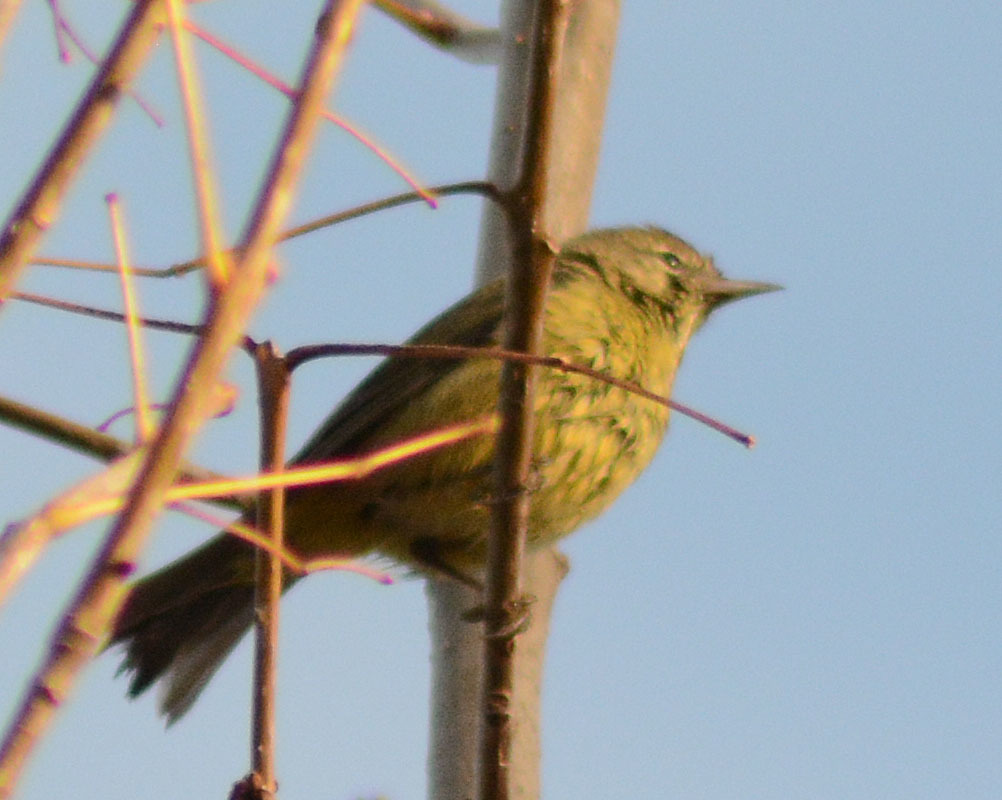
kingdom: Animalia
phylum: Chordata
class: Aves
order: Passeriformes
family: Parulidae
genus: Leiothlypis
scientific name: Leiothlypis celata
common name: Orange-crowned warbler
